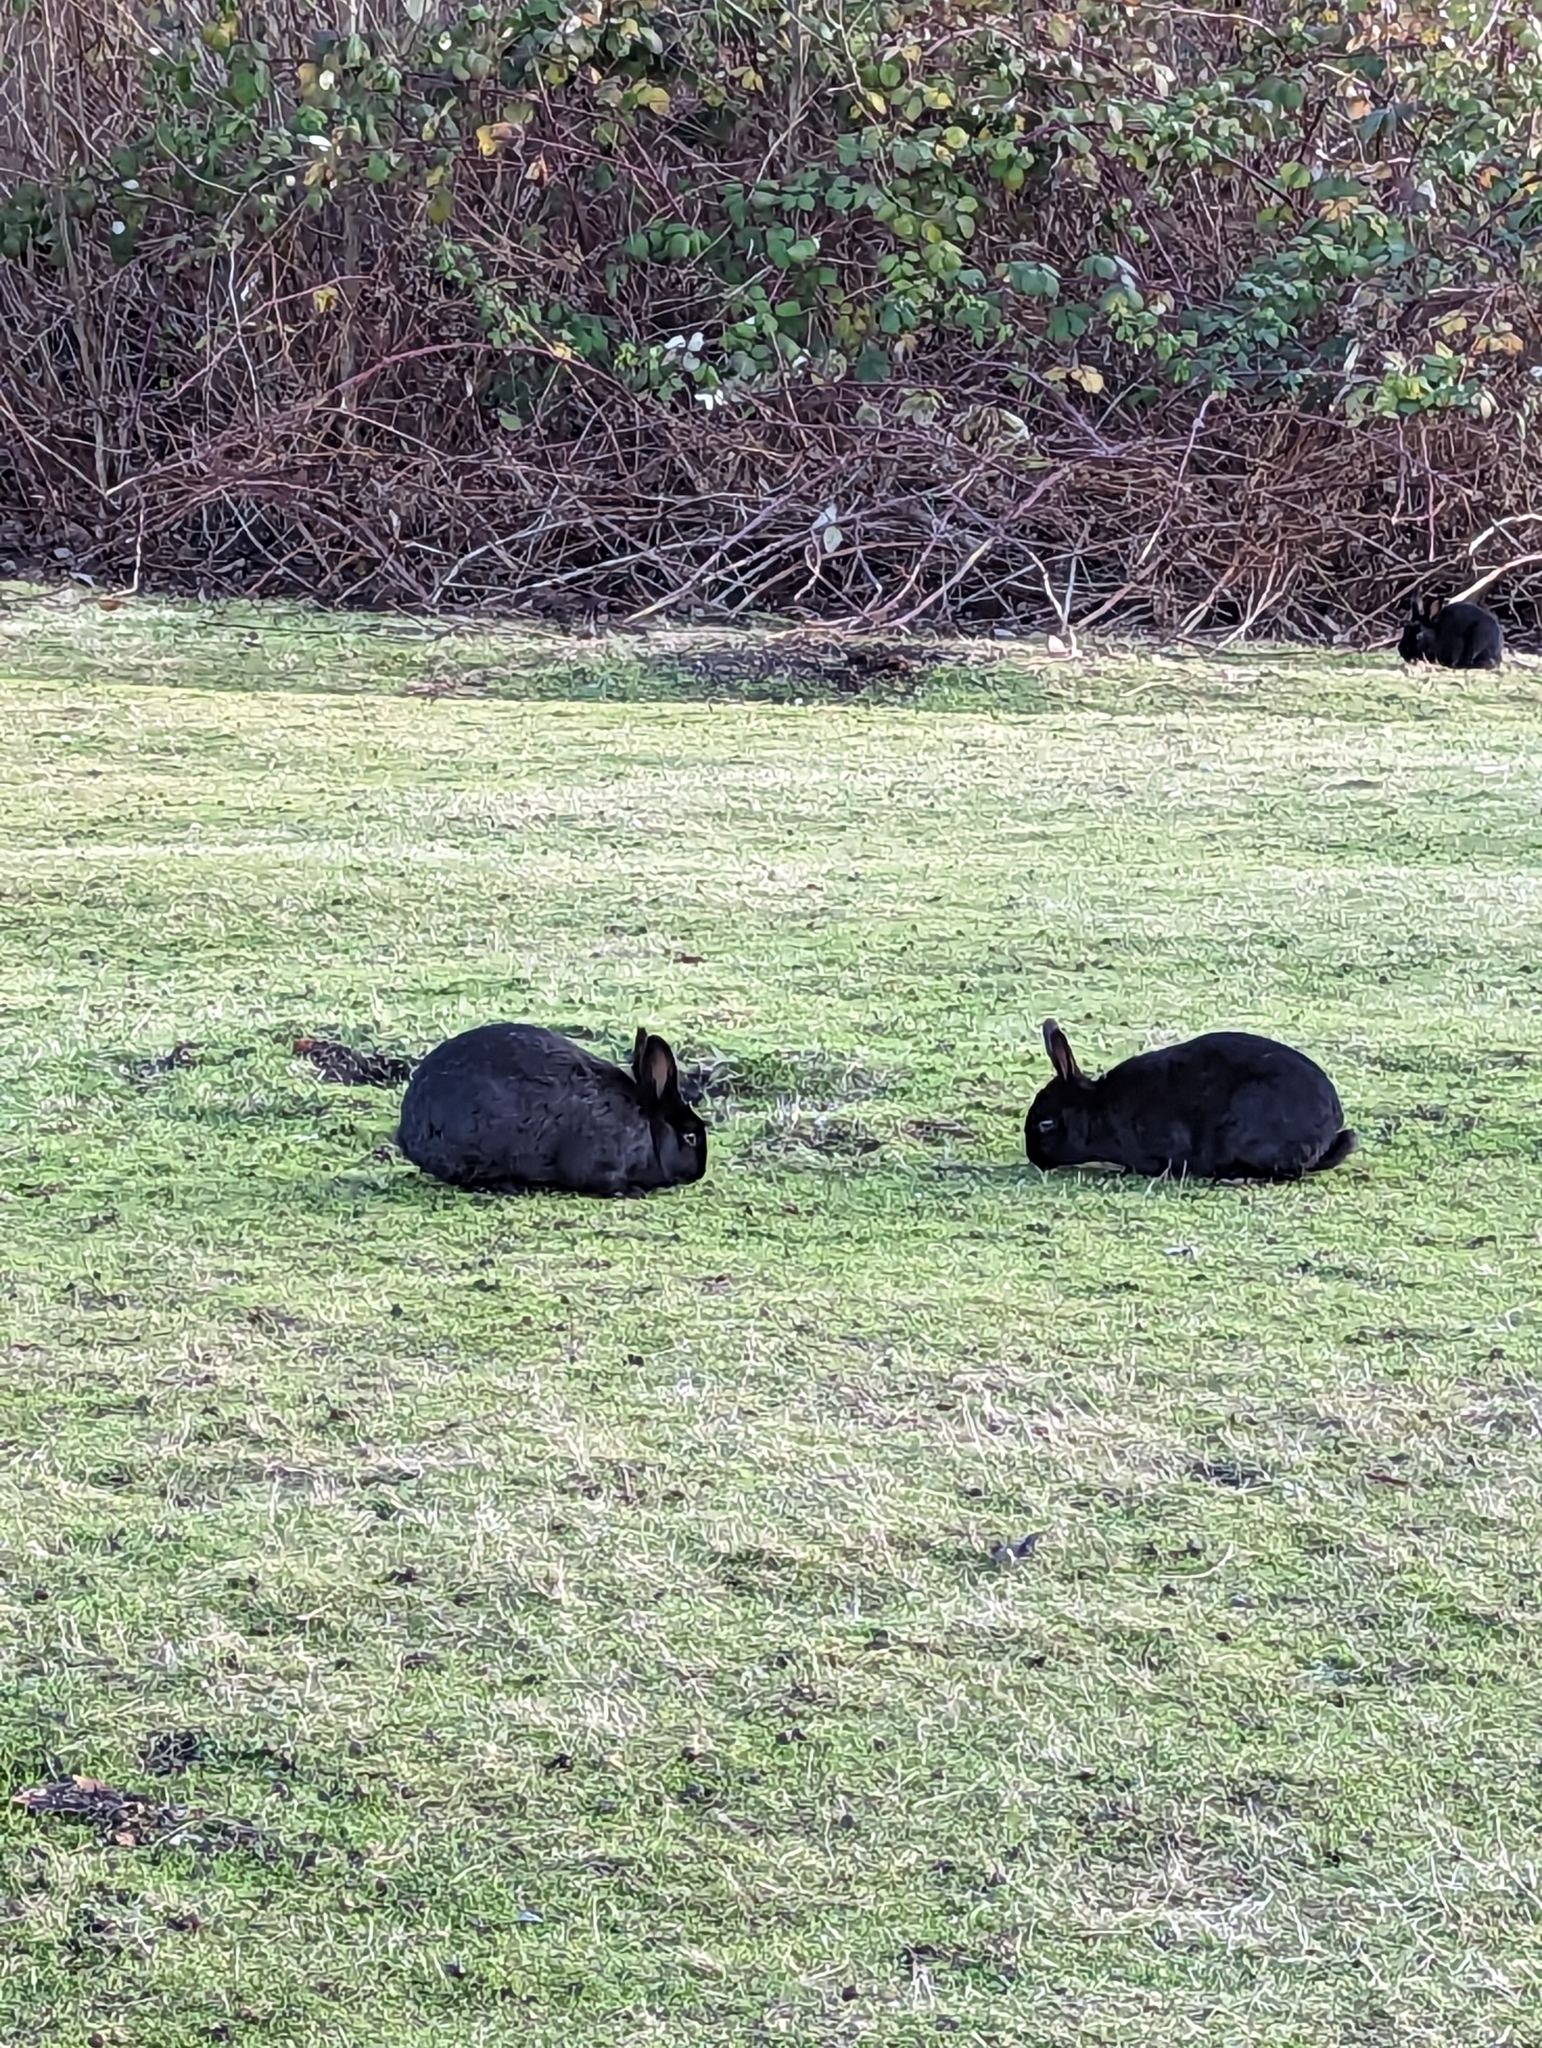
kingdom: Animalia
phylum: Chordata
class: Mammalia
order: Lagomorpha
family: Leporidae
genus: Oryctolagus
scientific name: Oryctolagus cuniculus
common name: European rabbit
